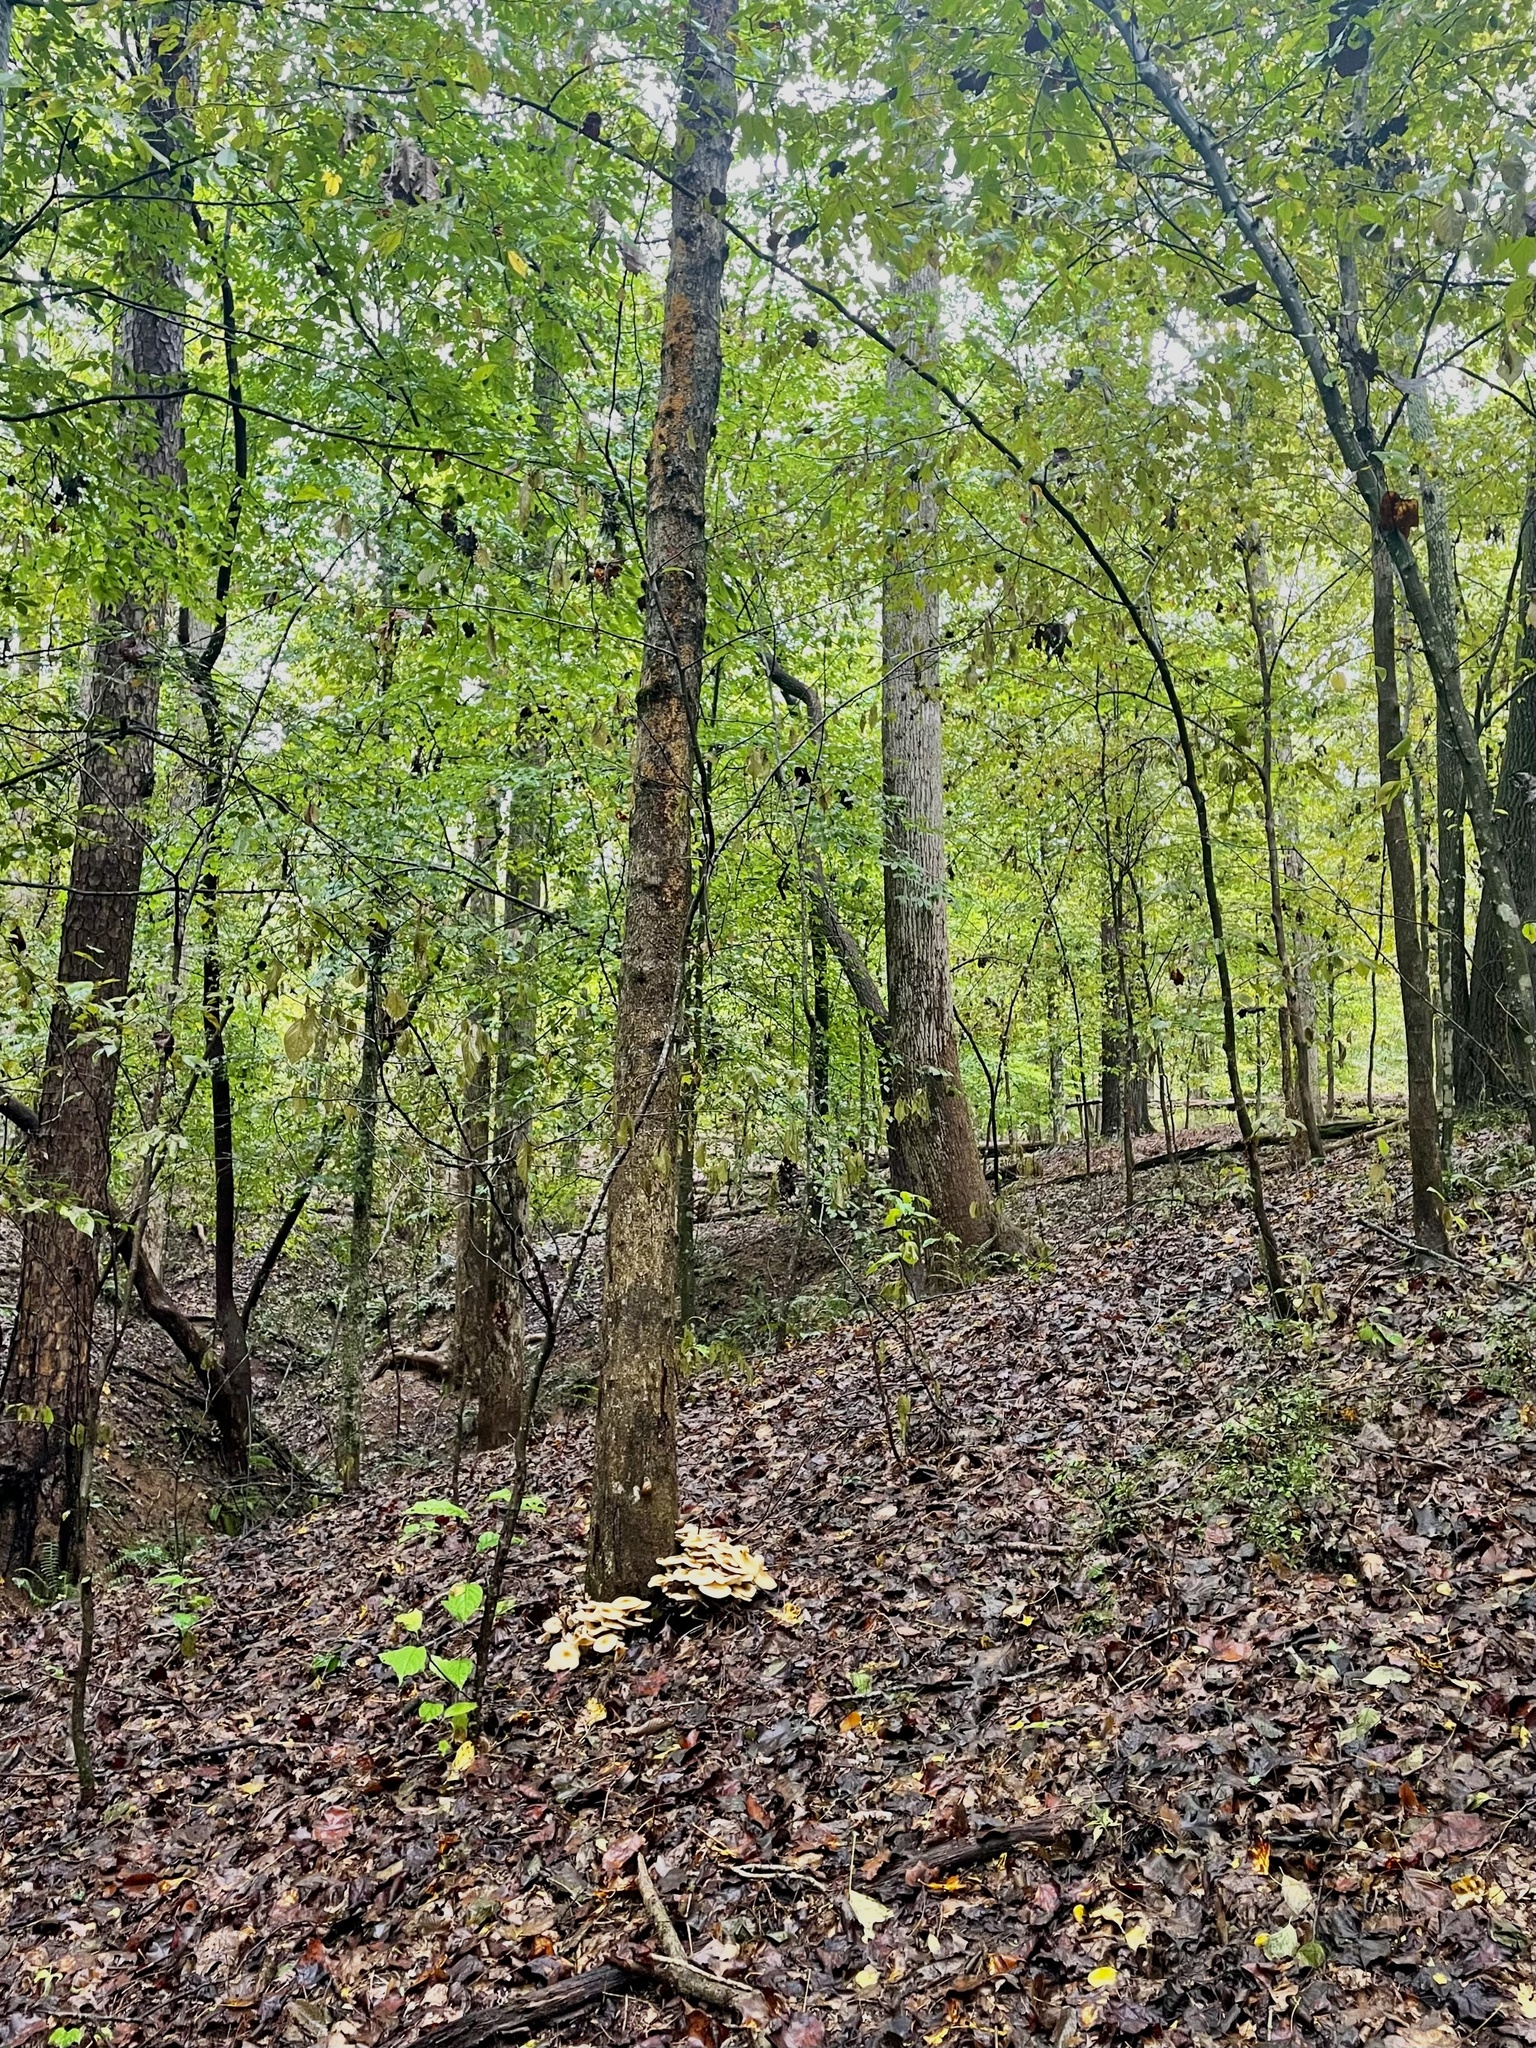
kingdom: Fungi
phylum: Basidiomycota
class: Agaricomycetes
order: Agaricales
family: Entolomataceae
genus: Entoloma
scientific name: Entoloma abortivum
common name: Aborted entoloma
